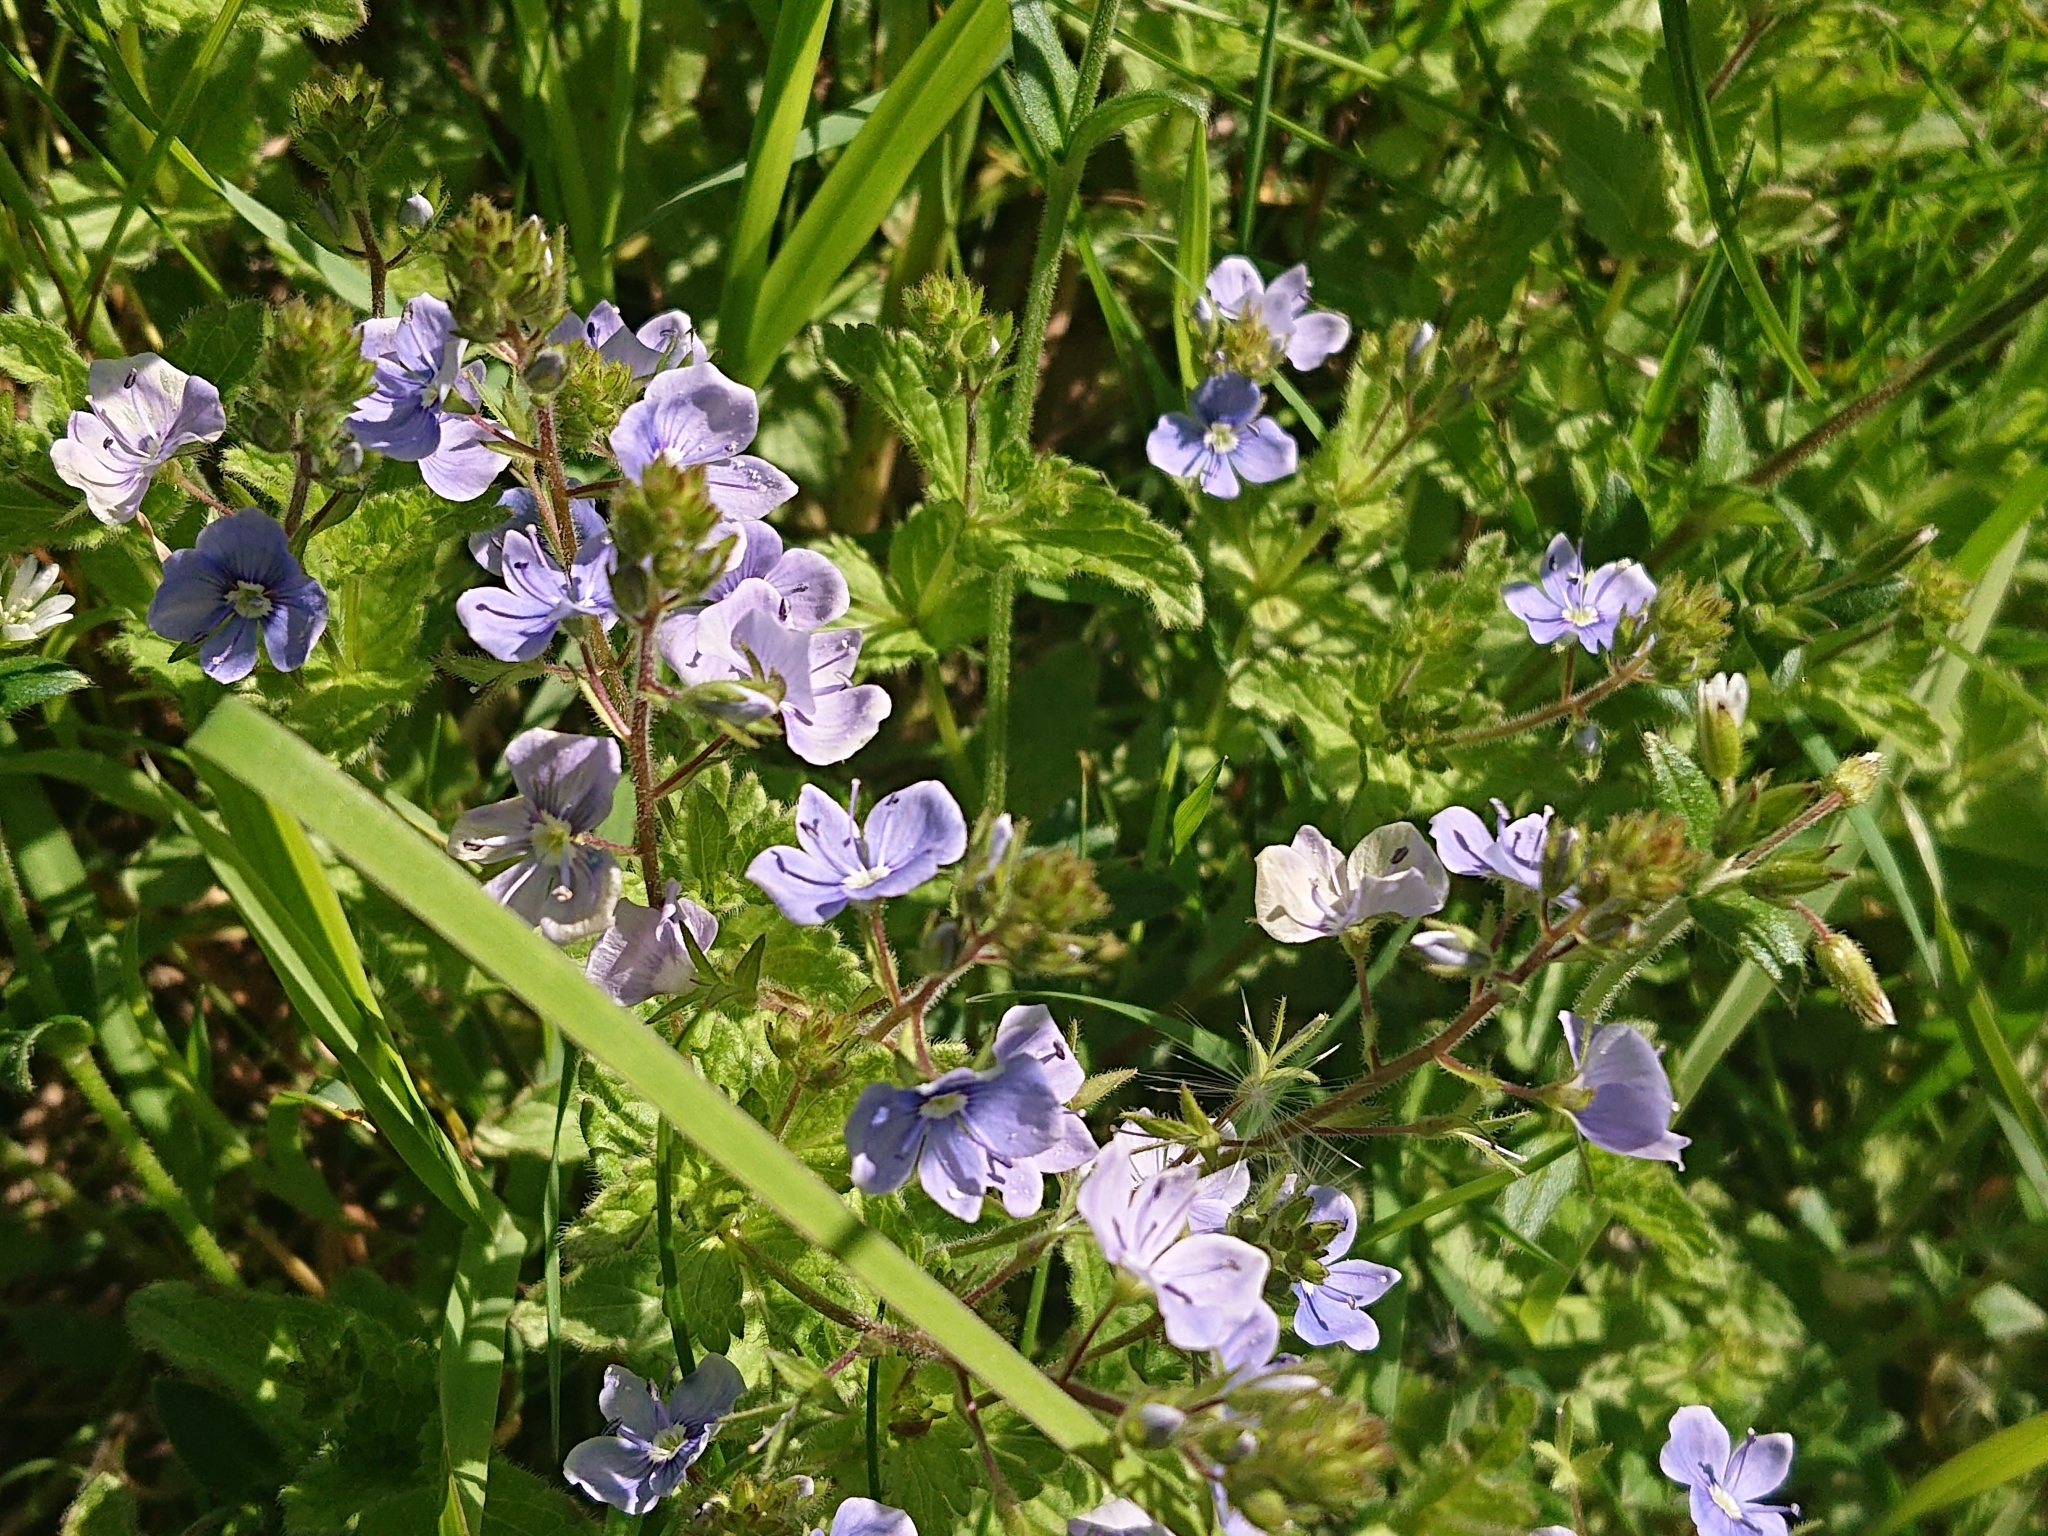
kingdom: Plantae
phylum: Tracheophyta
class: Magnoliopsida
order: Lamiales
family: Plantaginaceae
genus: Veronica
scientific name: Veronica chamaedrys
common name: Germander speedwell
